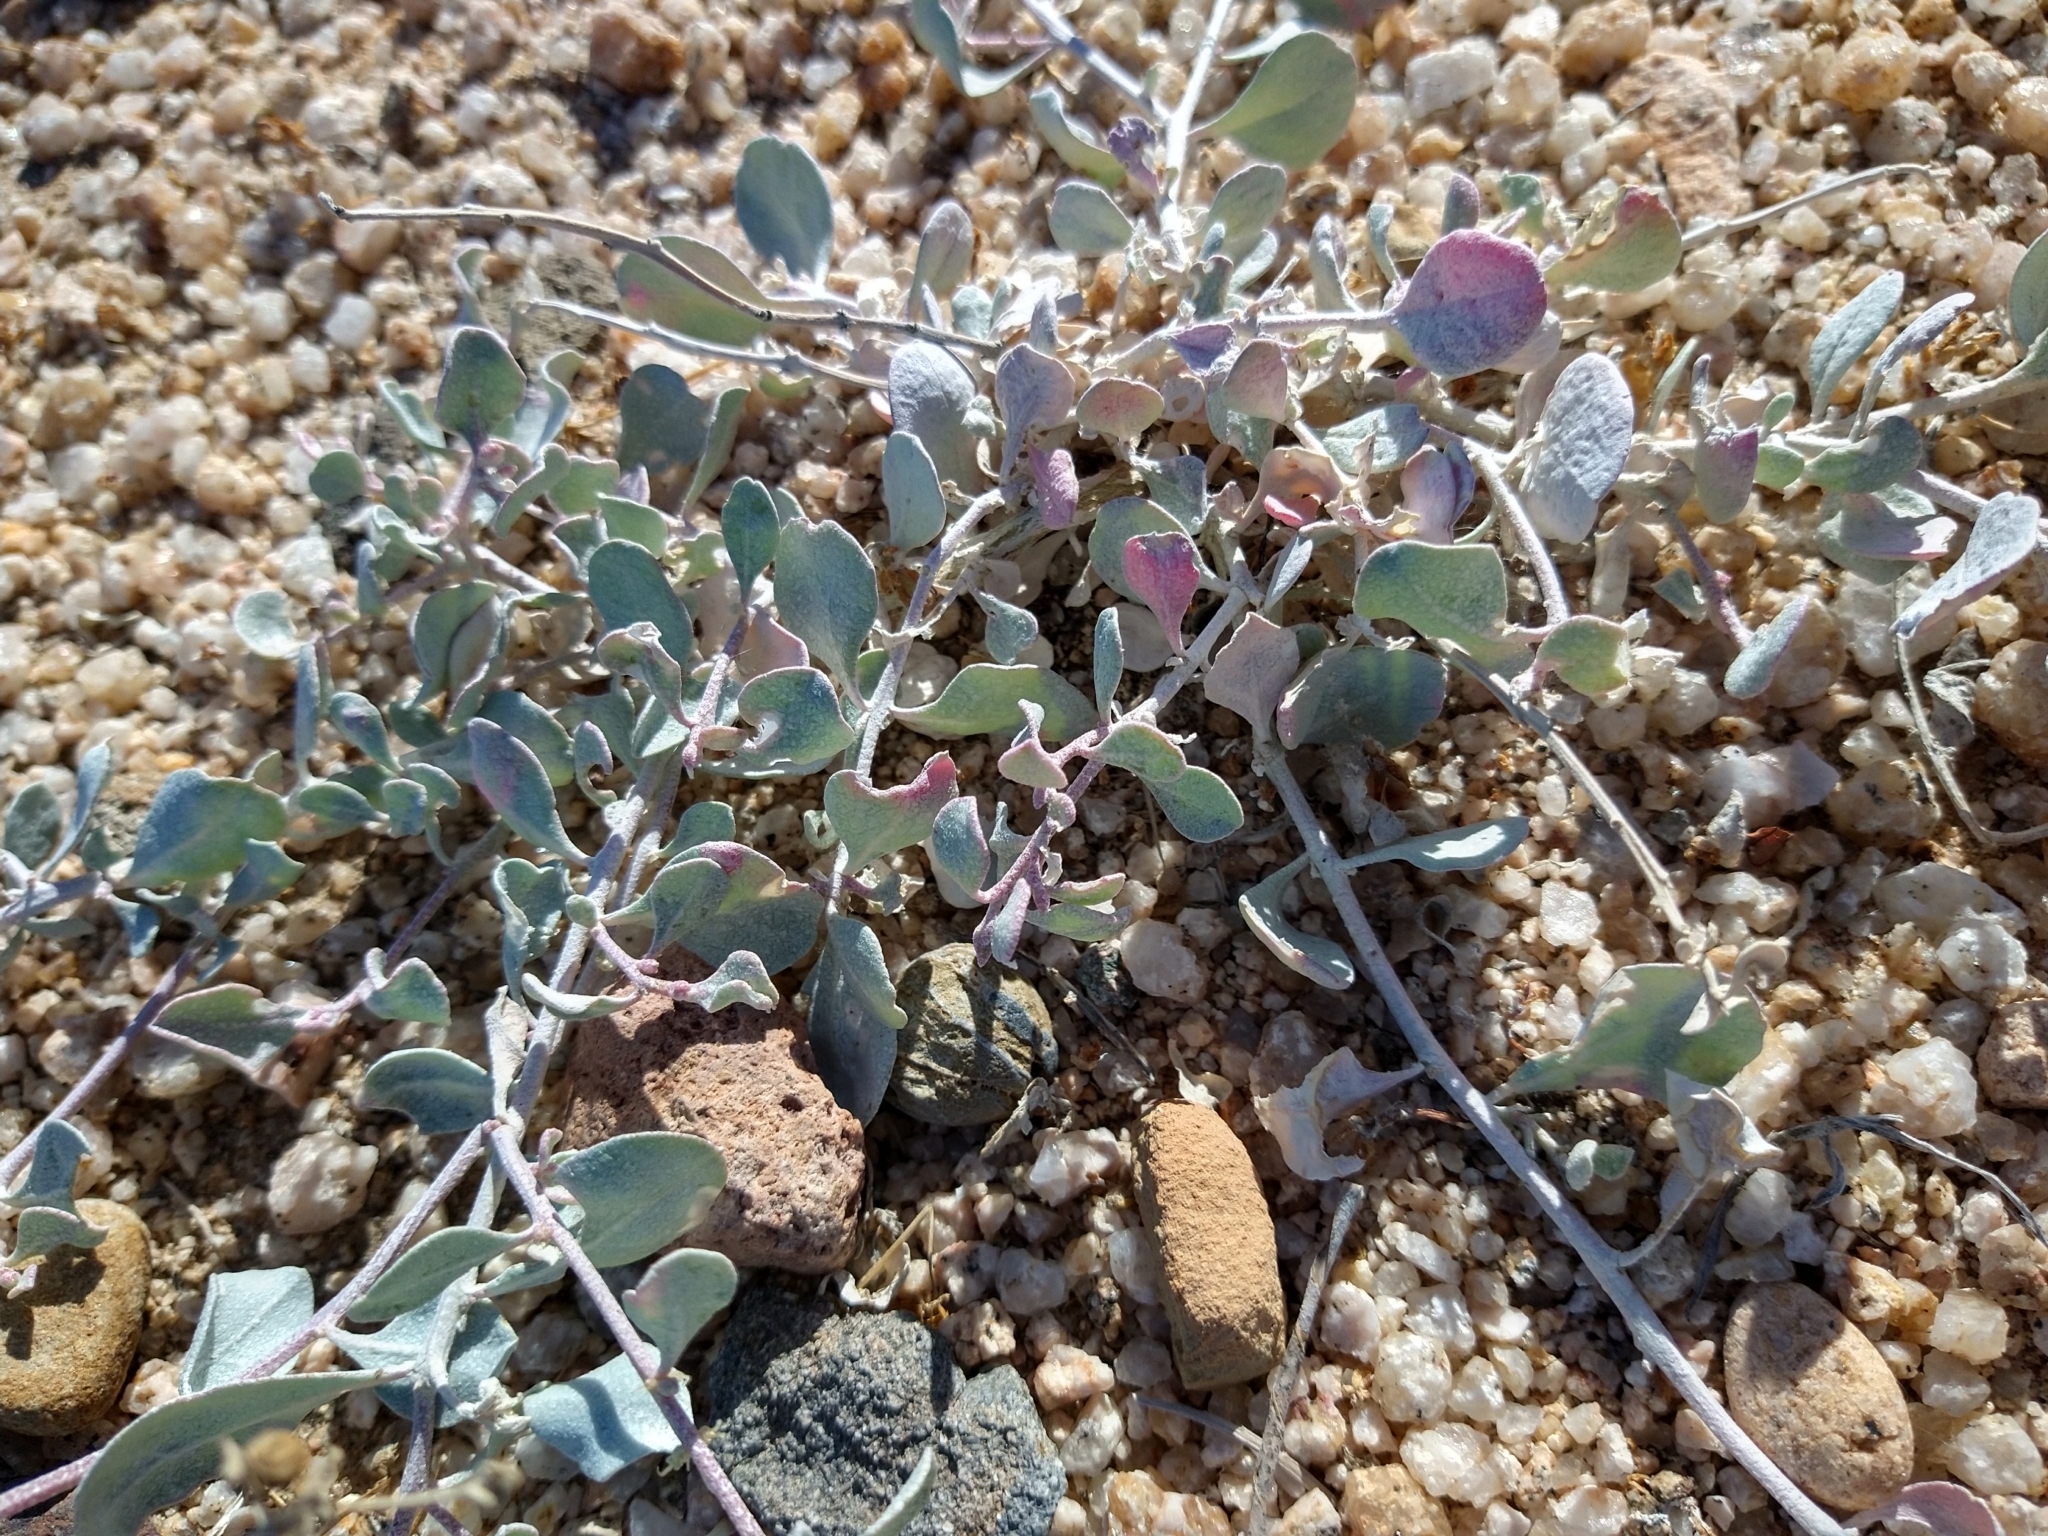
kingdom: Plantae
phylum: Tracheophyta
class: Magnoliopsida
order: Caryophyllales
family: Amaranthaceae
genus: Atriplex
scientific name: Atriplex barclayana
